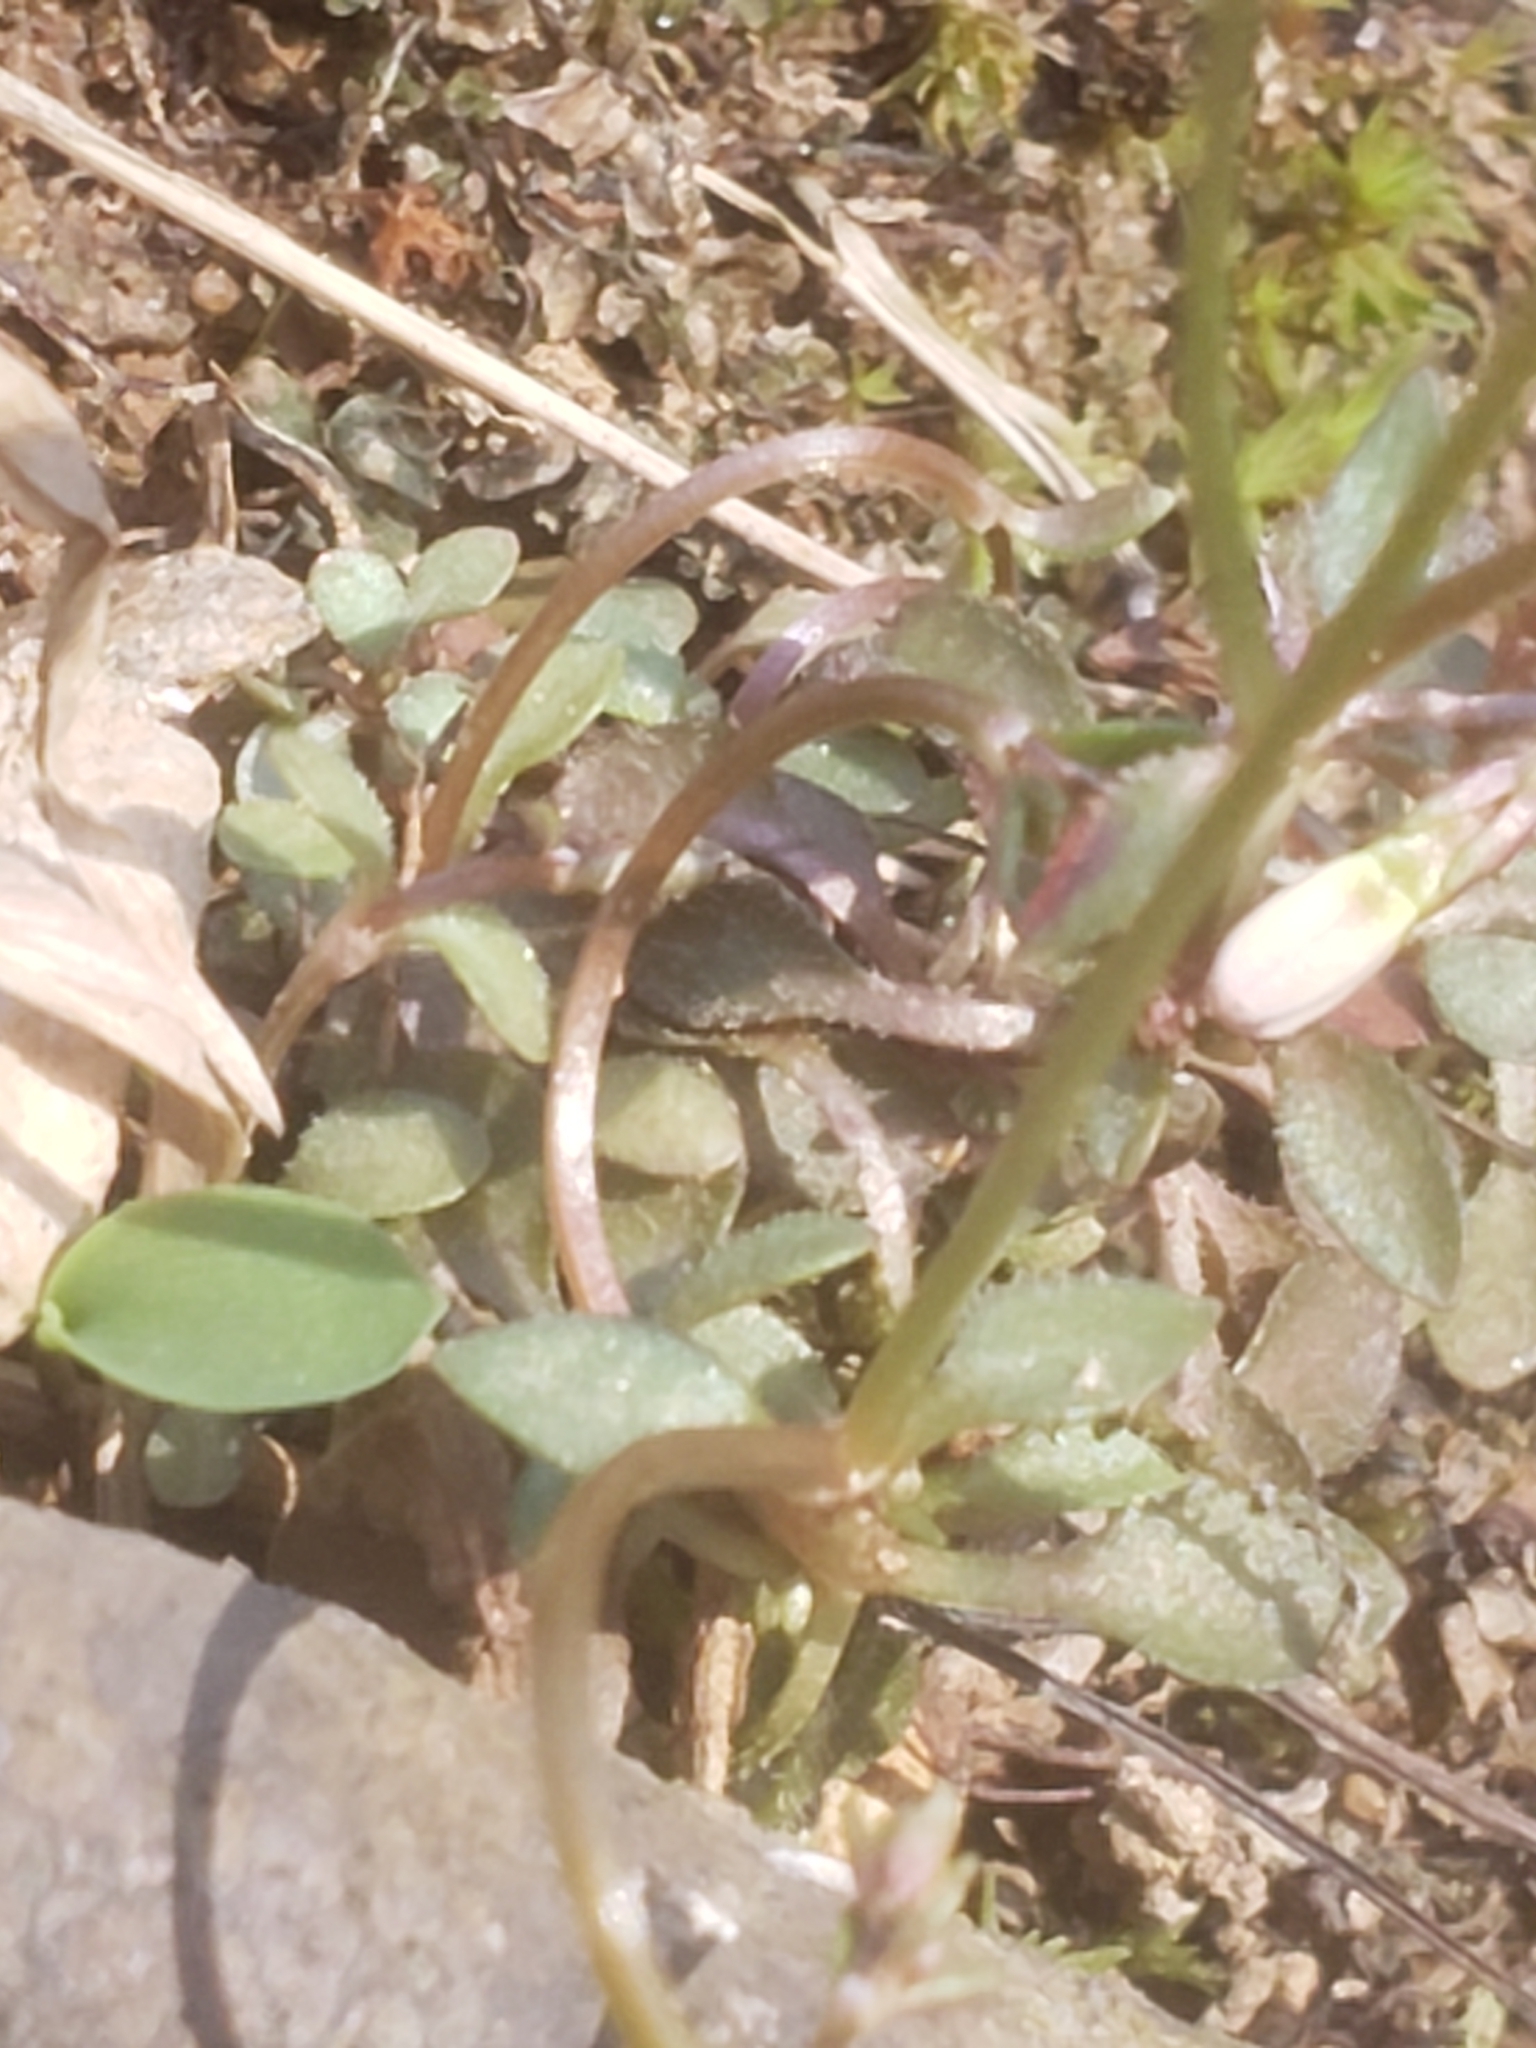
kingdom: Plantae
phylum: Tracheophyta
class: Magnoliopsida
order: Gentianales
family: Rubiaceae
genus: Houstonia
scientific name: Houstonia caerulea
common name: Bluets
